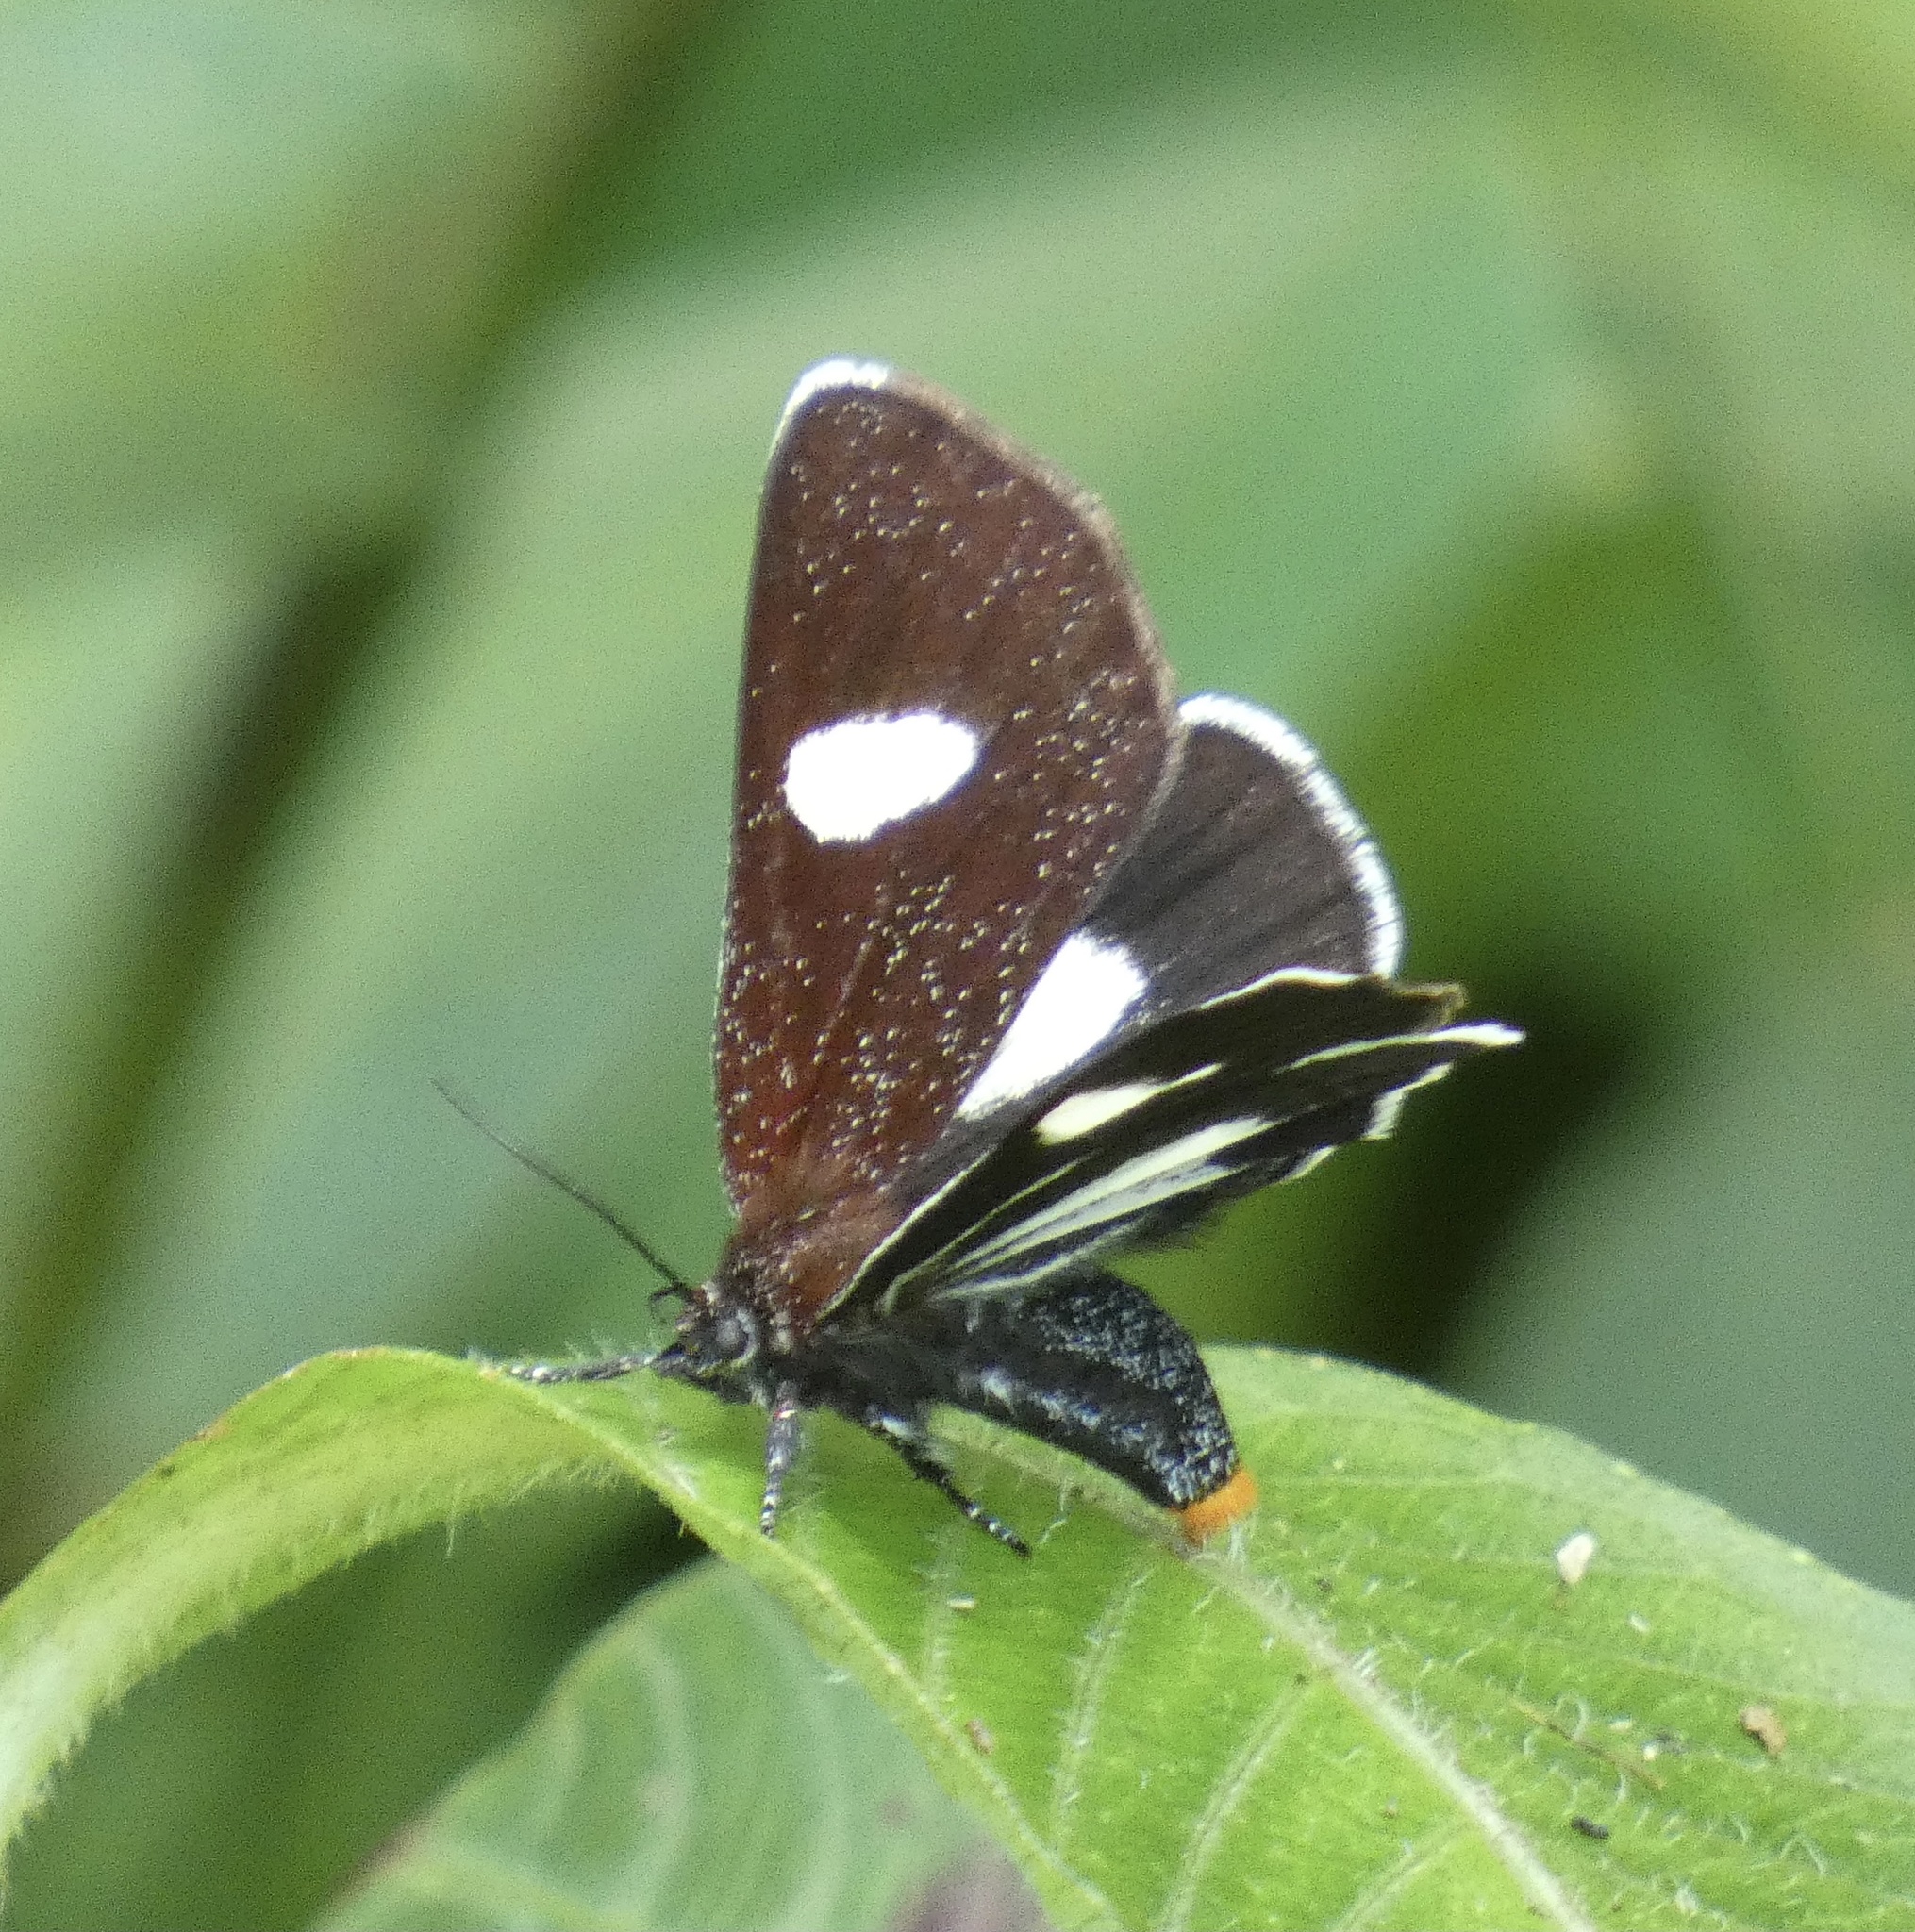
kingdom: Animalia
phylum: Arthropoda
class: Insecta
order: Lepidoptera
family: Noctuidae
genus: Rhosus
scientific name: Rhosus ovata
